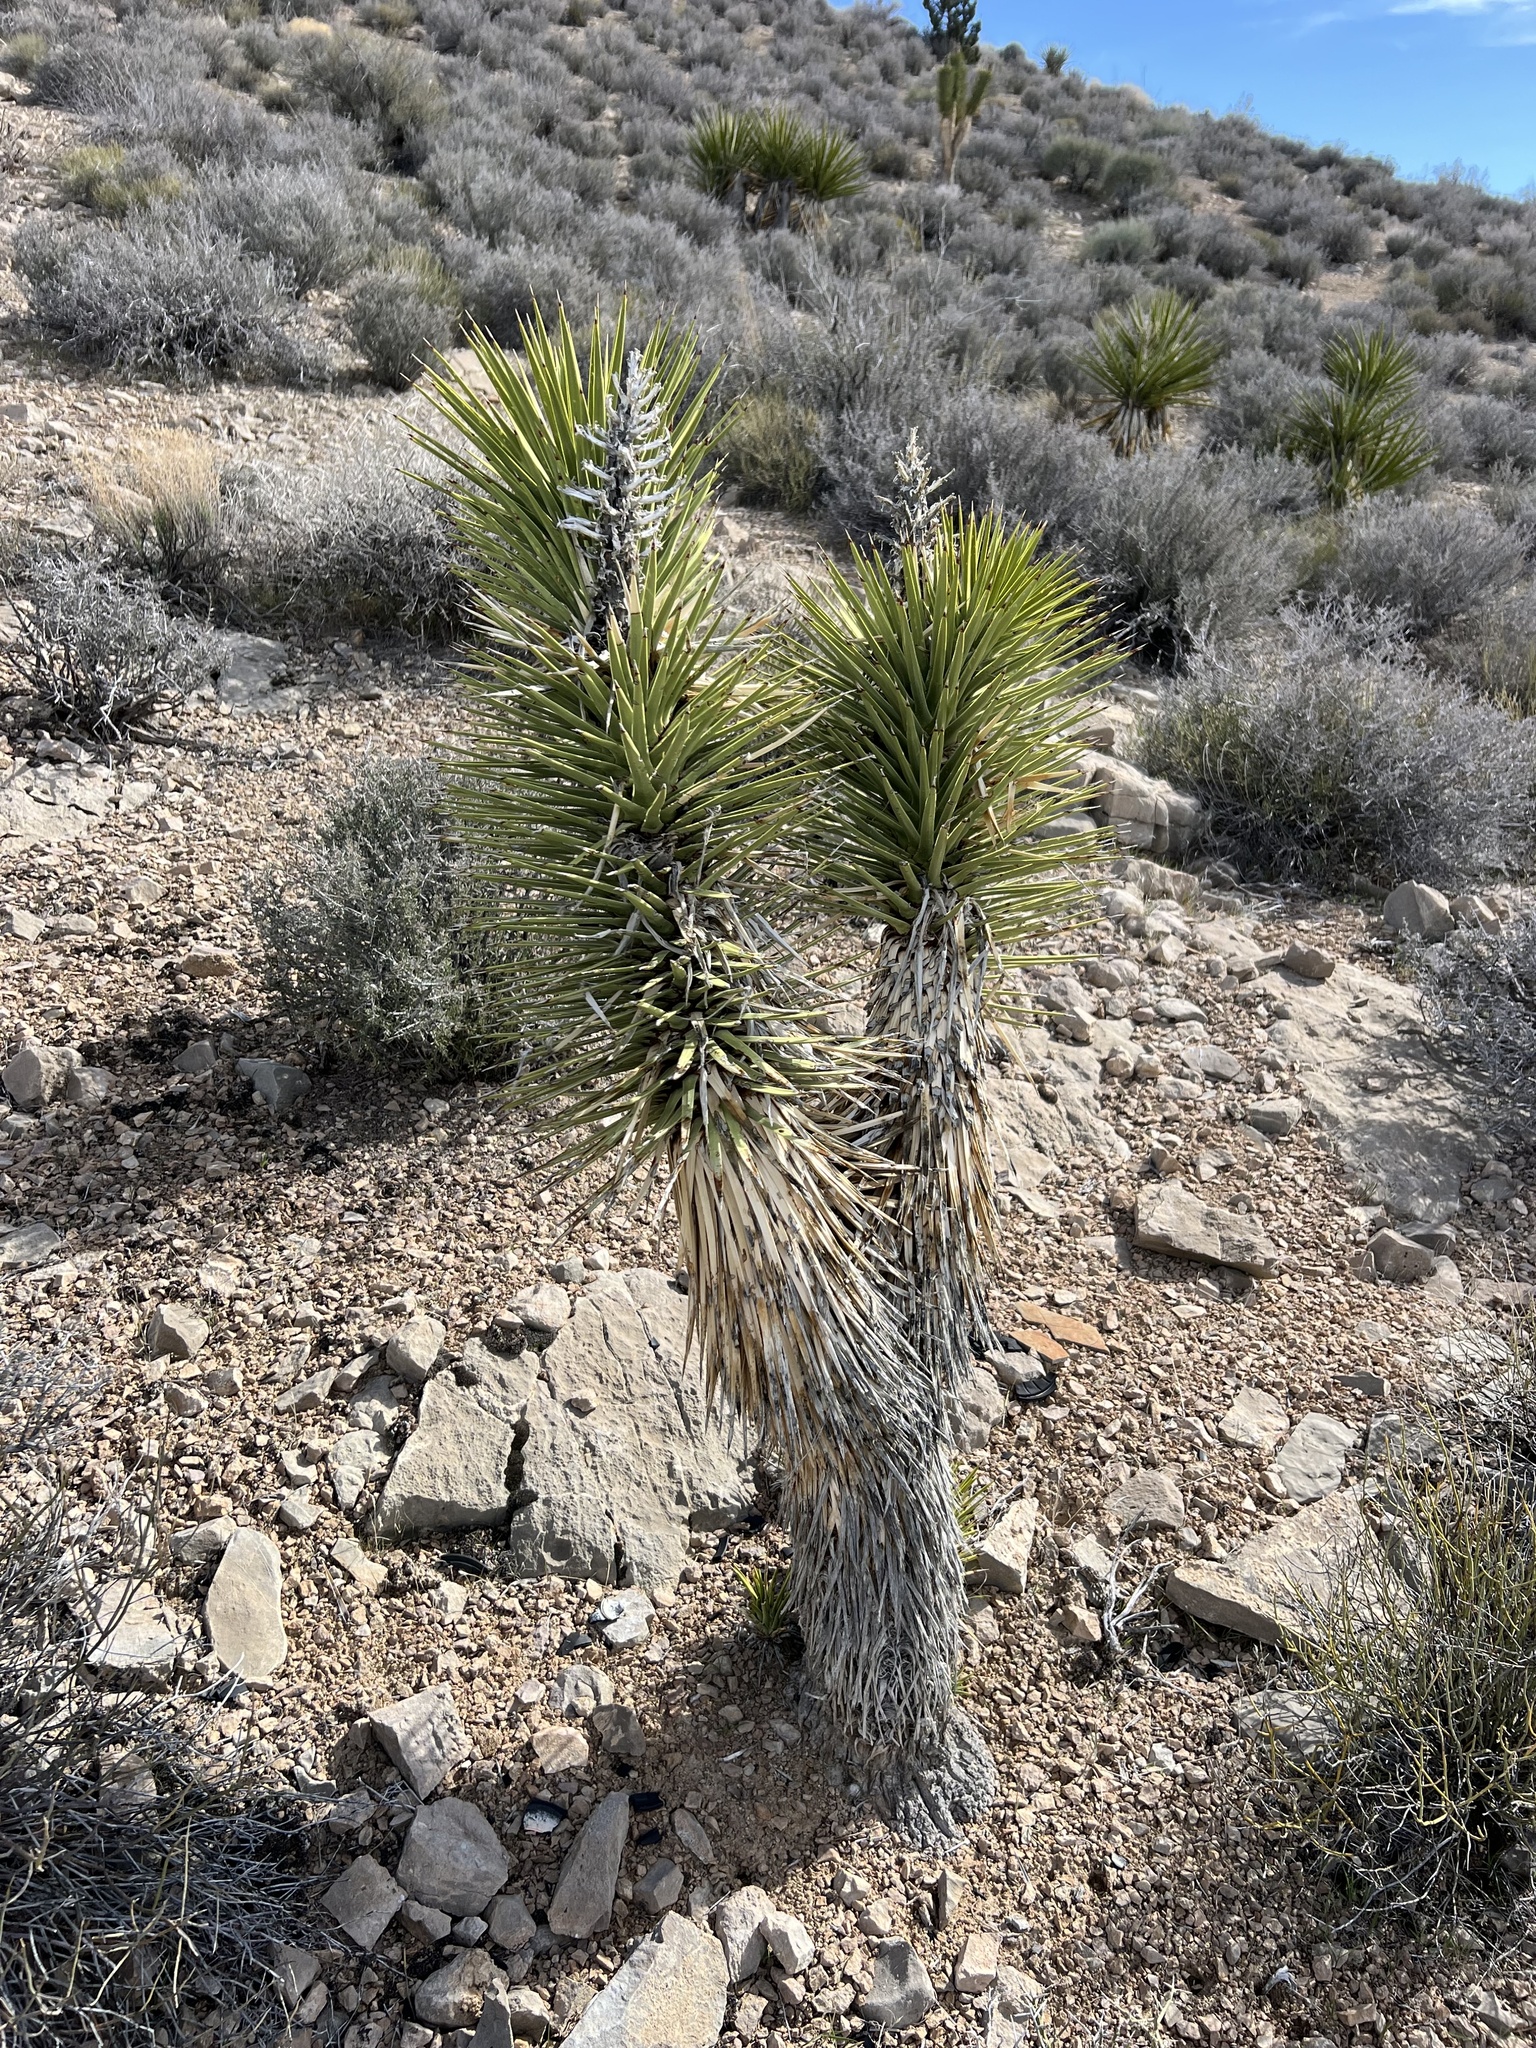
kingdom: Plantae
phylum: Tracheophyta
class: Liliopsida
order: Asparagales
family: Asparagaceae
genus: Yucca
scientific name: Yucca brevifolia
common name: Joshua tree
